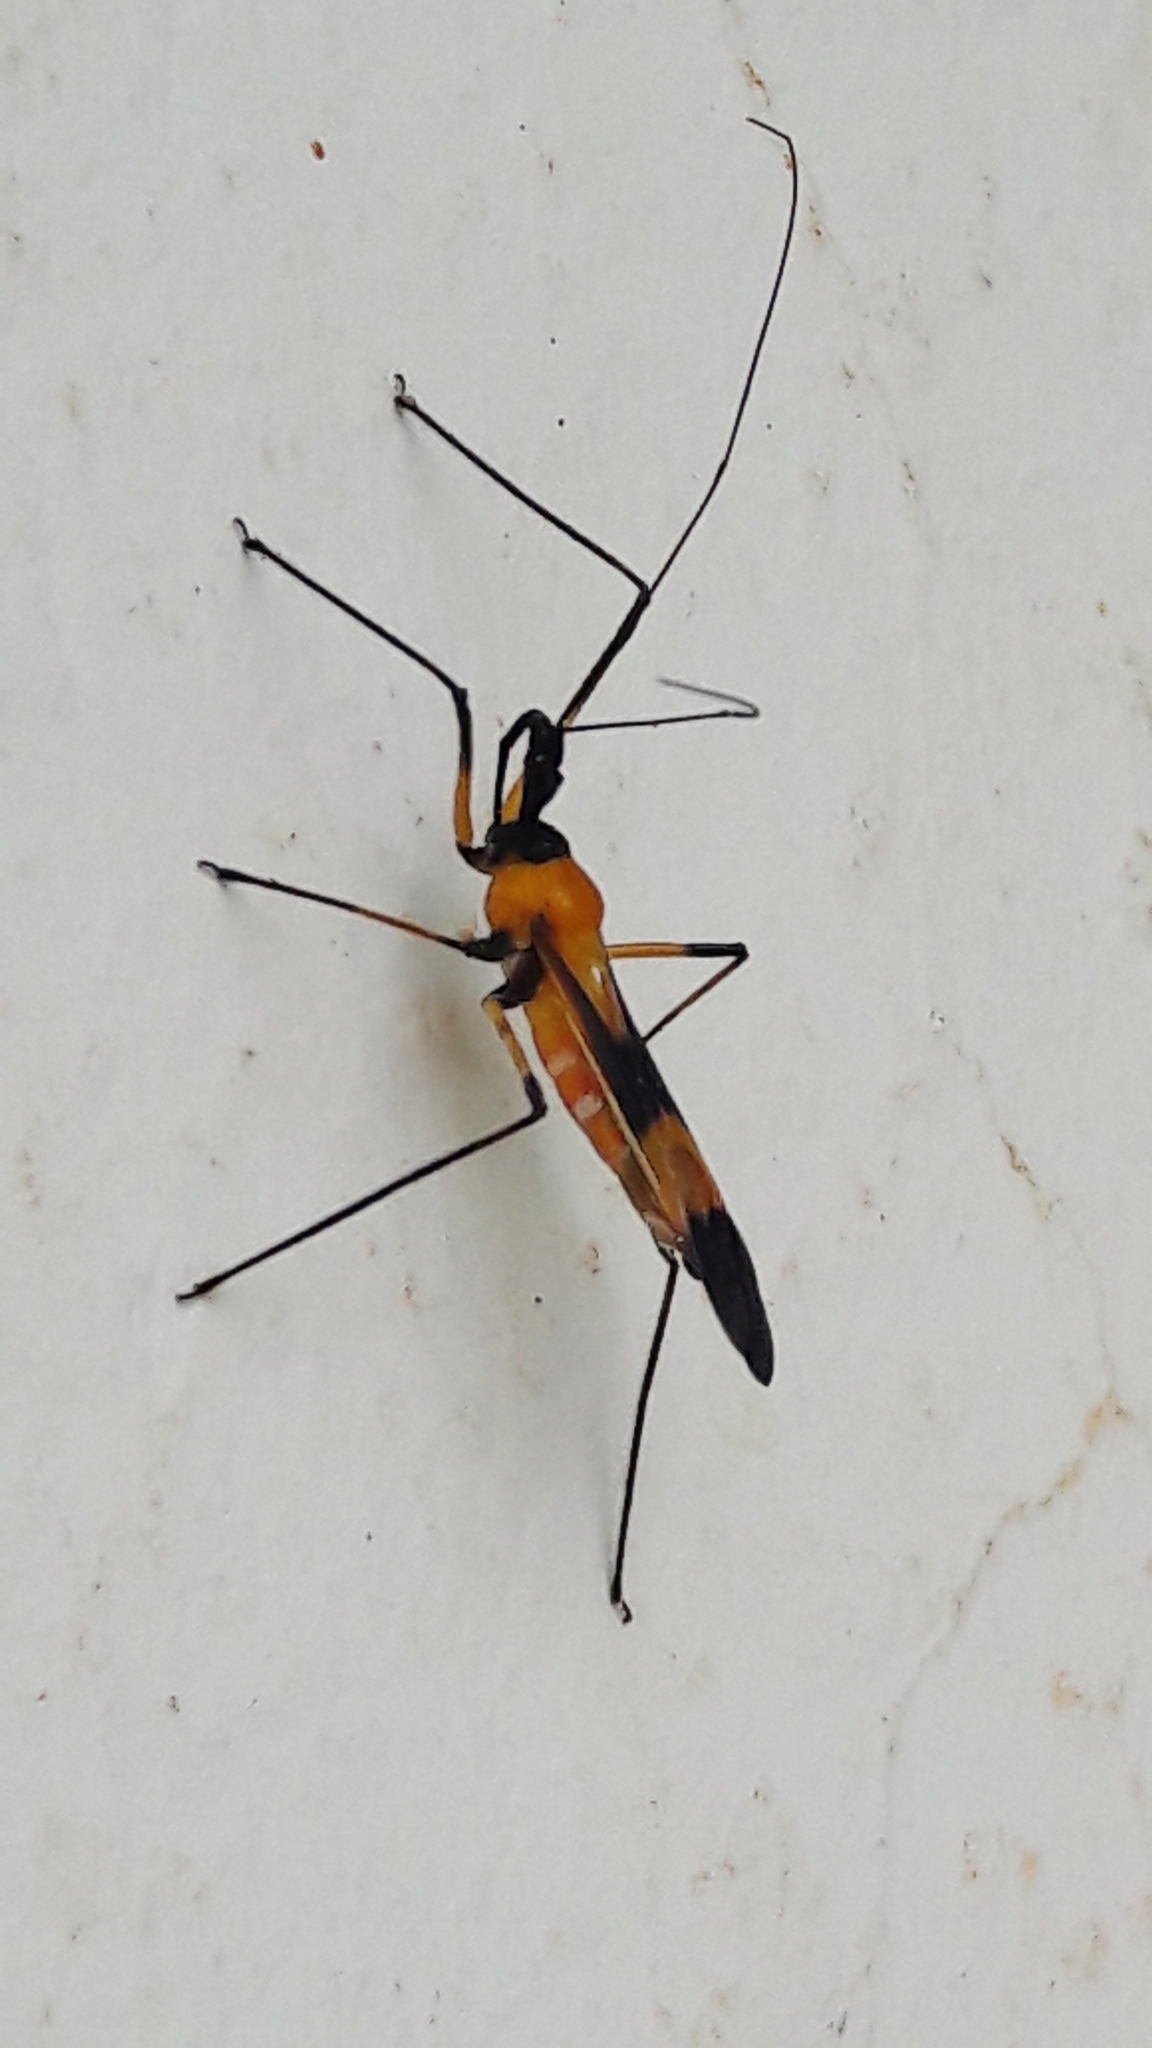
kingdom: Animalia
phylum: Arthropoda
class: Insecta
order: Hemiptera
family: Reduviidae
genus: Zelus
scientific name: Zelus vespiformis
